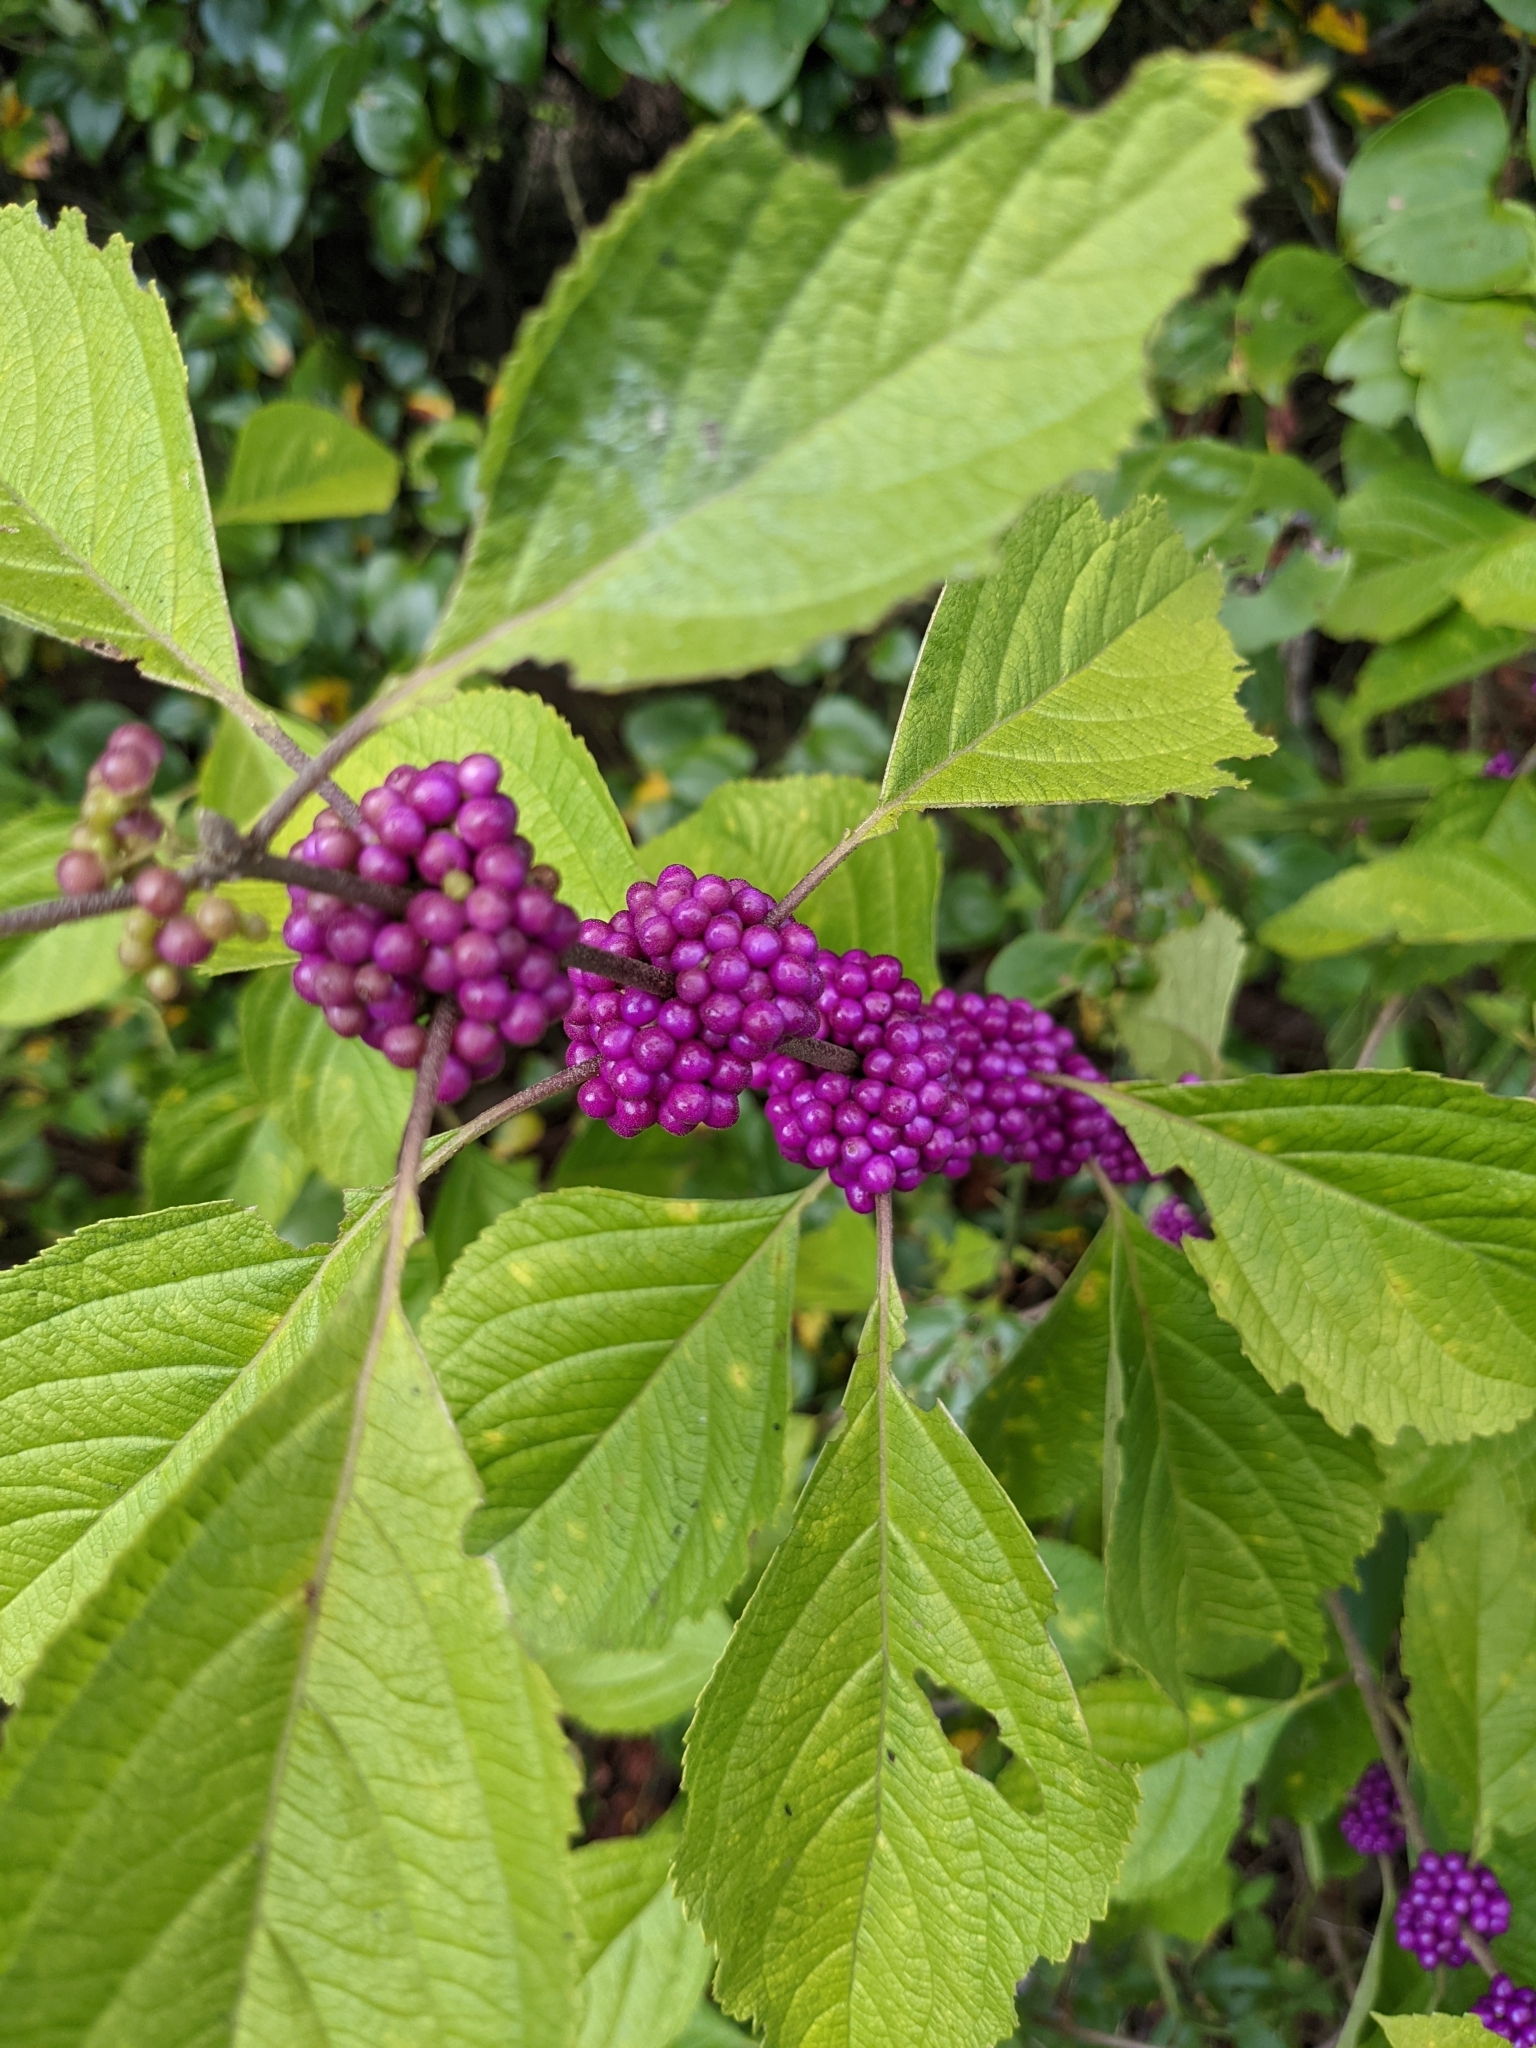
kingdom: Plantae
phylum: Tracheophyta
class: Magnoliopsida
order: Lamiales
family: Lamiaceae
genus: Callicarpa
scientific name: Callicarpa americana
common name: American beautyberry
